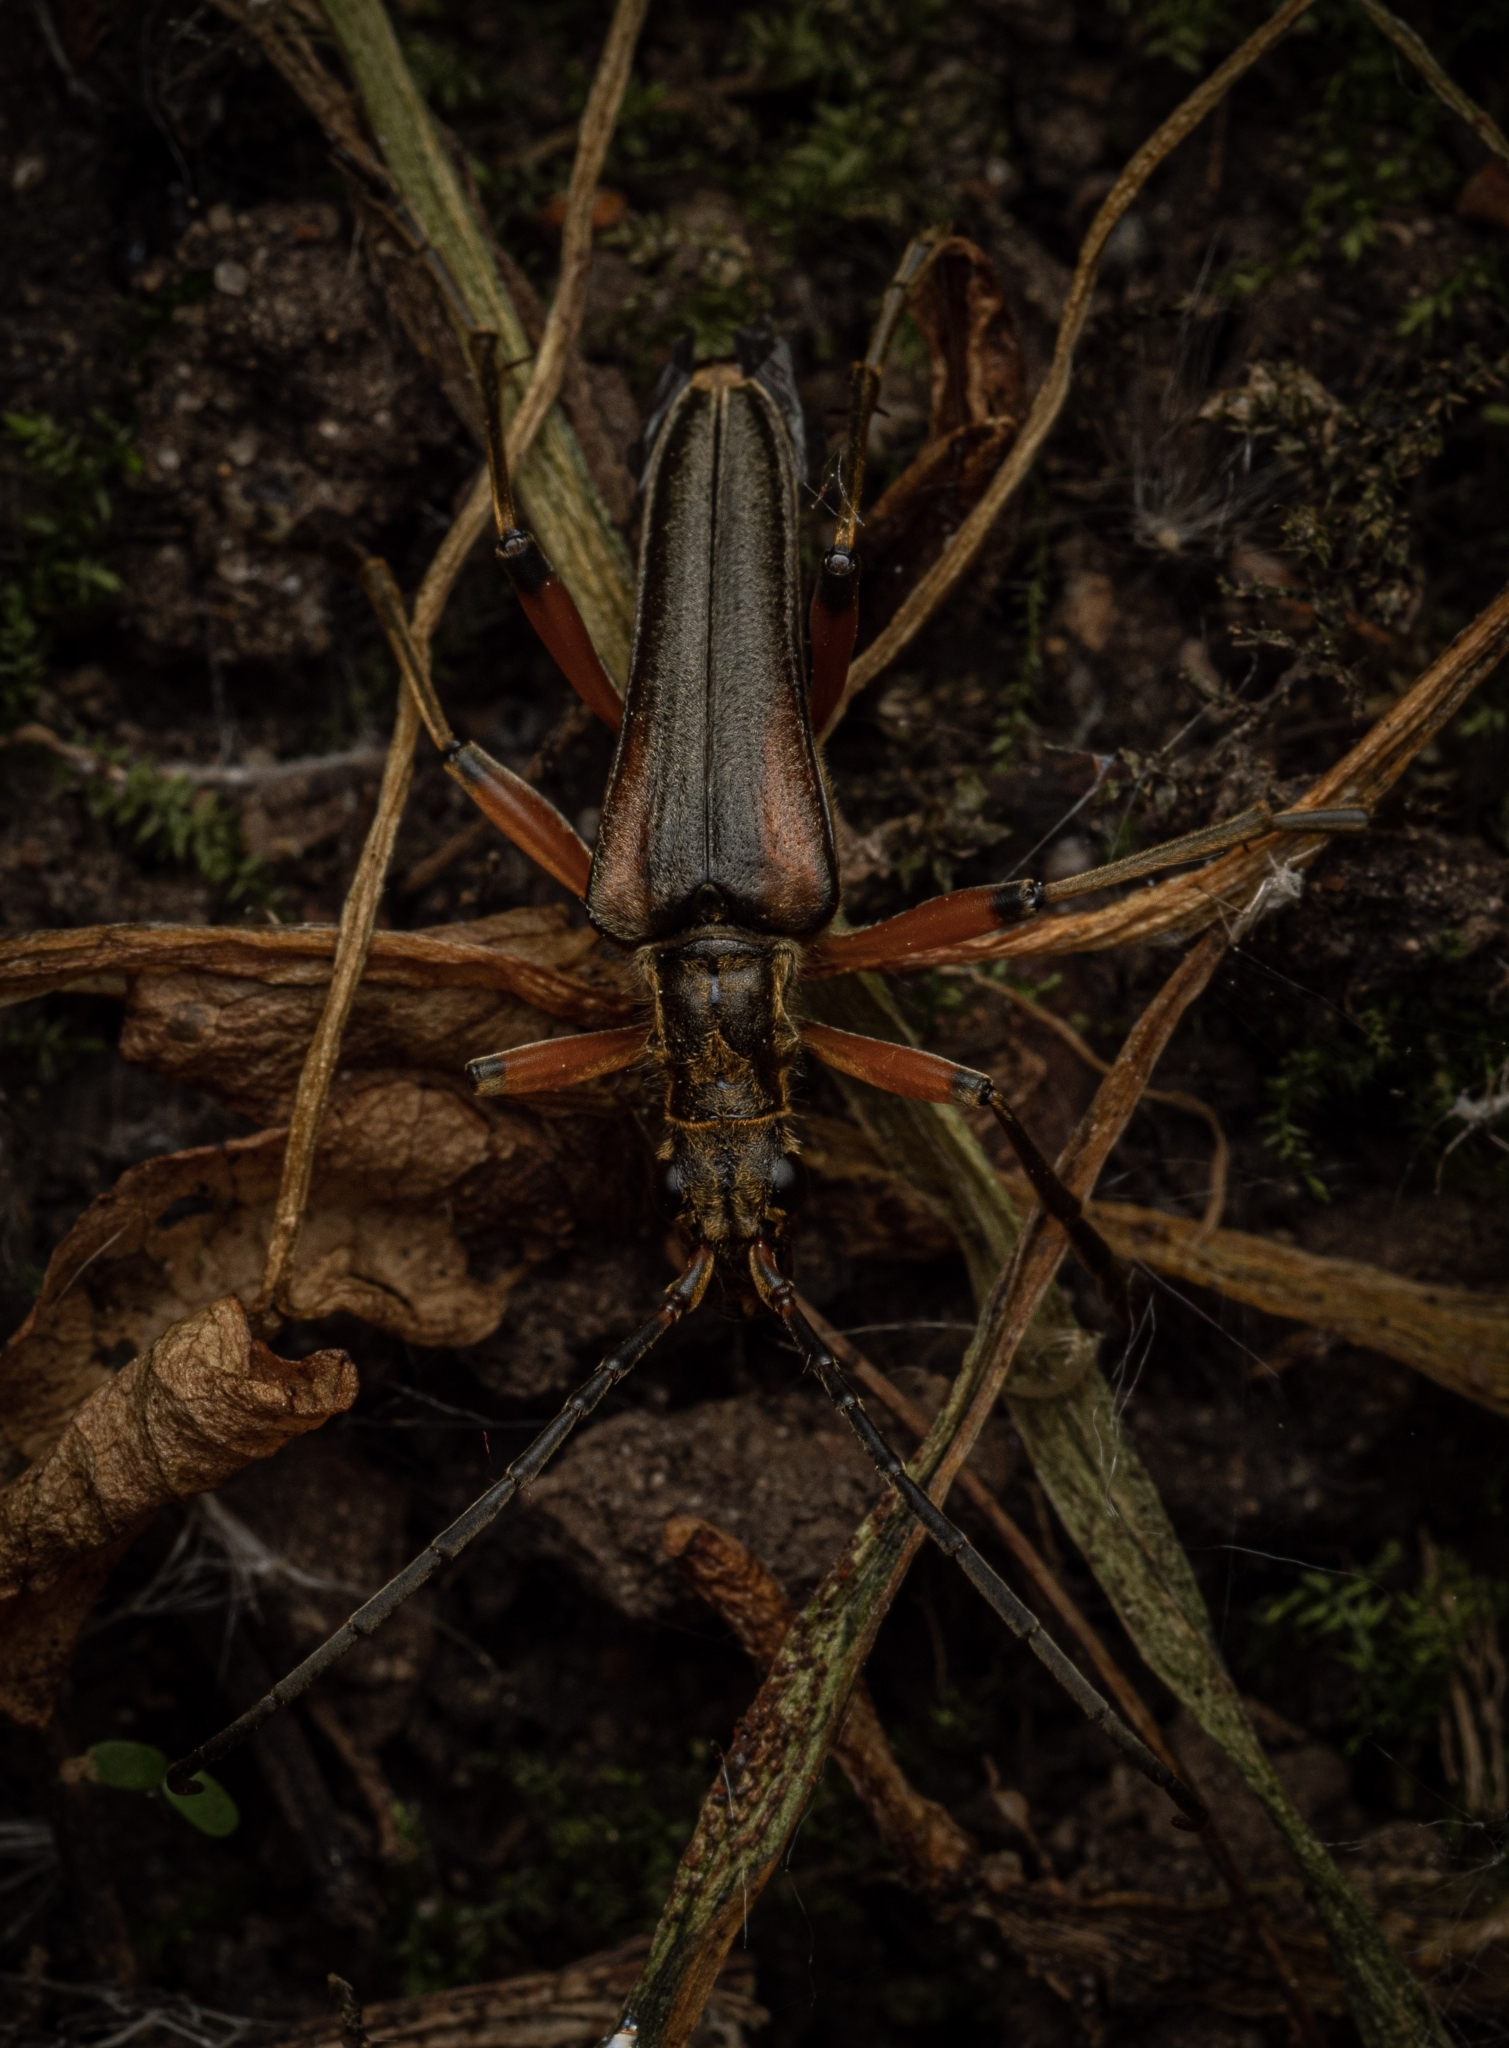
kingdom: Animalia
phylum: Arthropoda
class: Insecta
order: Coleoptera
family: Cerambycidae
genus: Stenocorus
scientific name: Stenocorus meridianus
